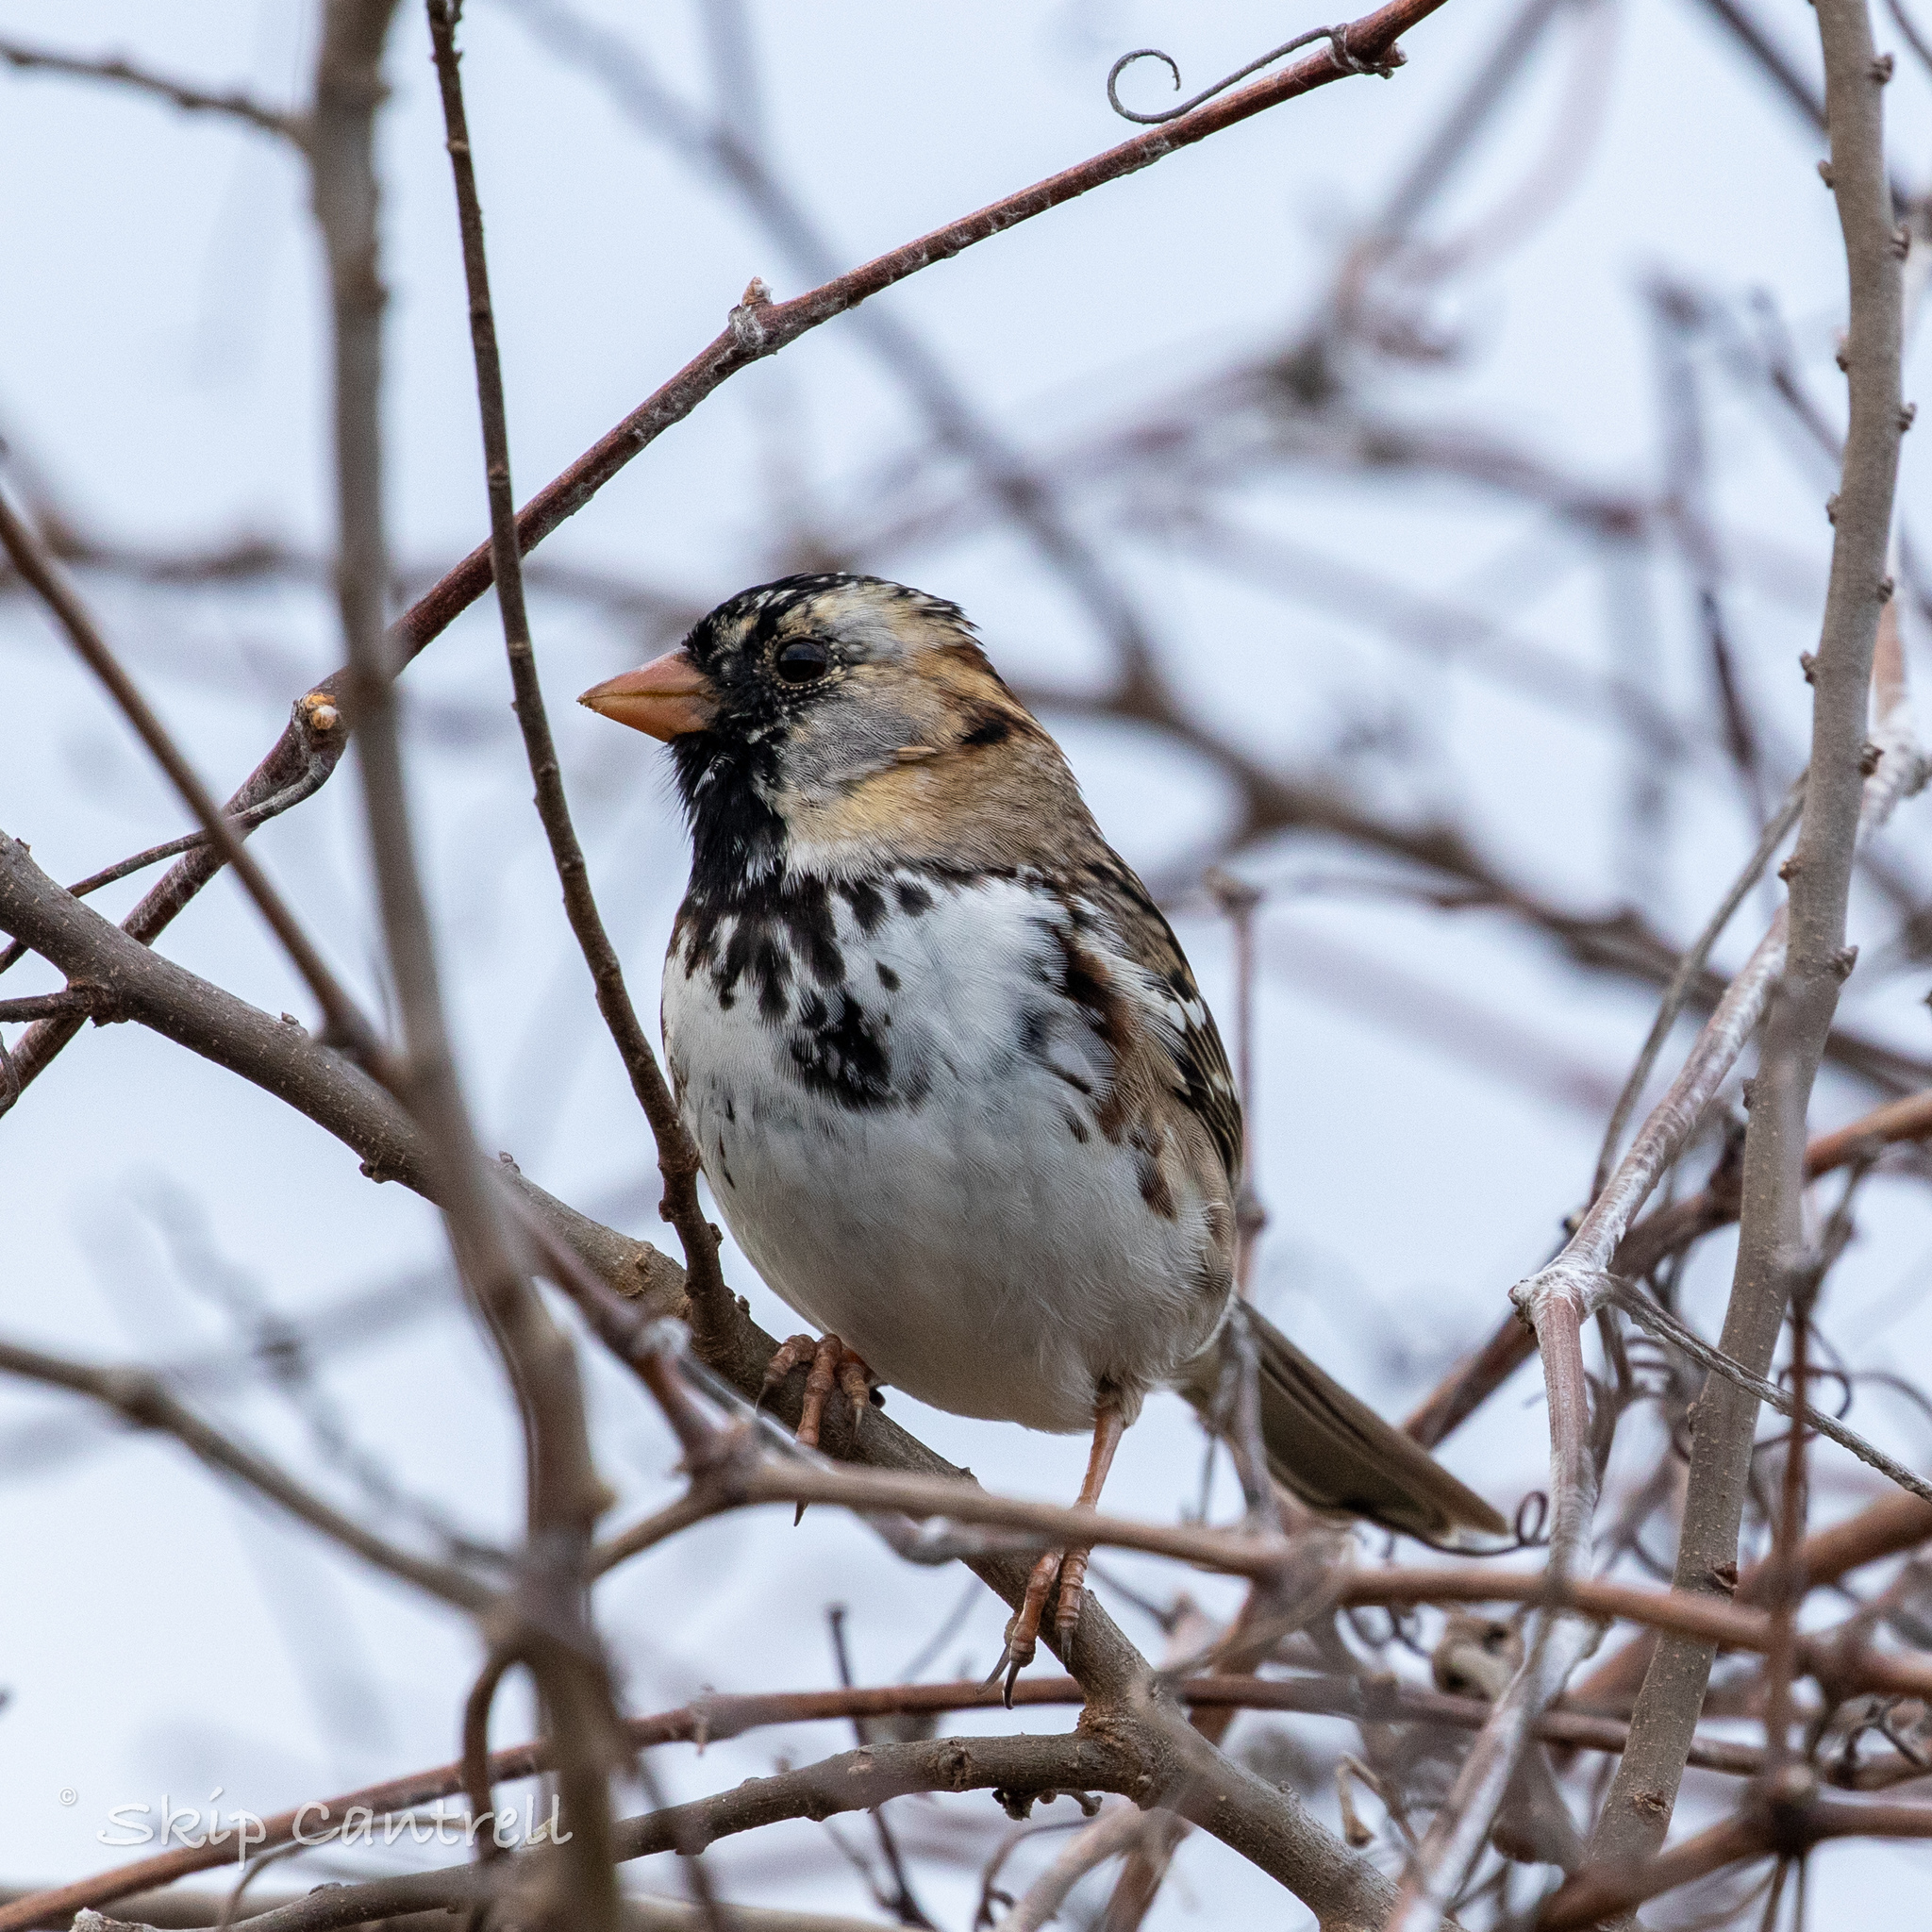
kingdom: Animalia
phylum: Chordata
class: Aves
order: Passeriformes
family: Passerellidae
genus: Zonotrichia
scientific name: Zonotrichia querula
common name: Harris's sparrow
